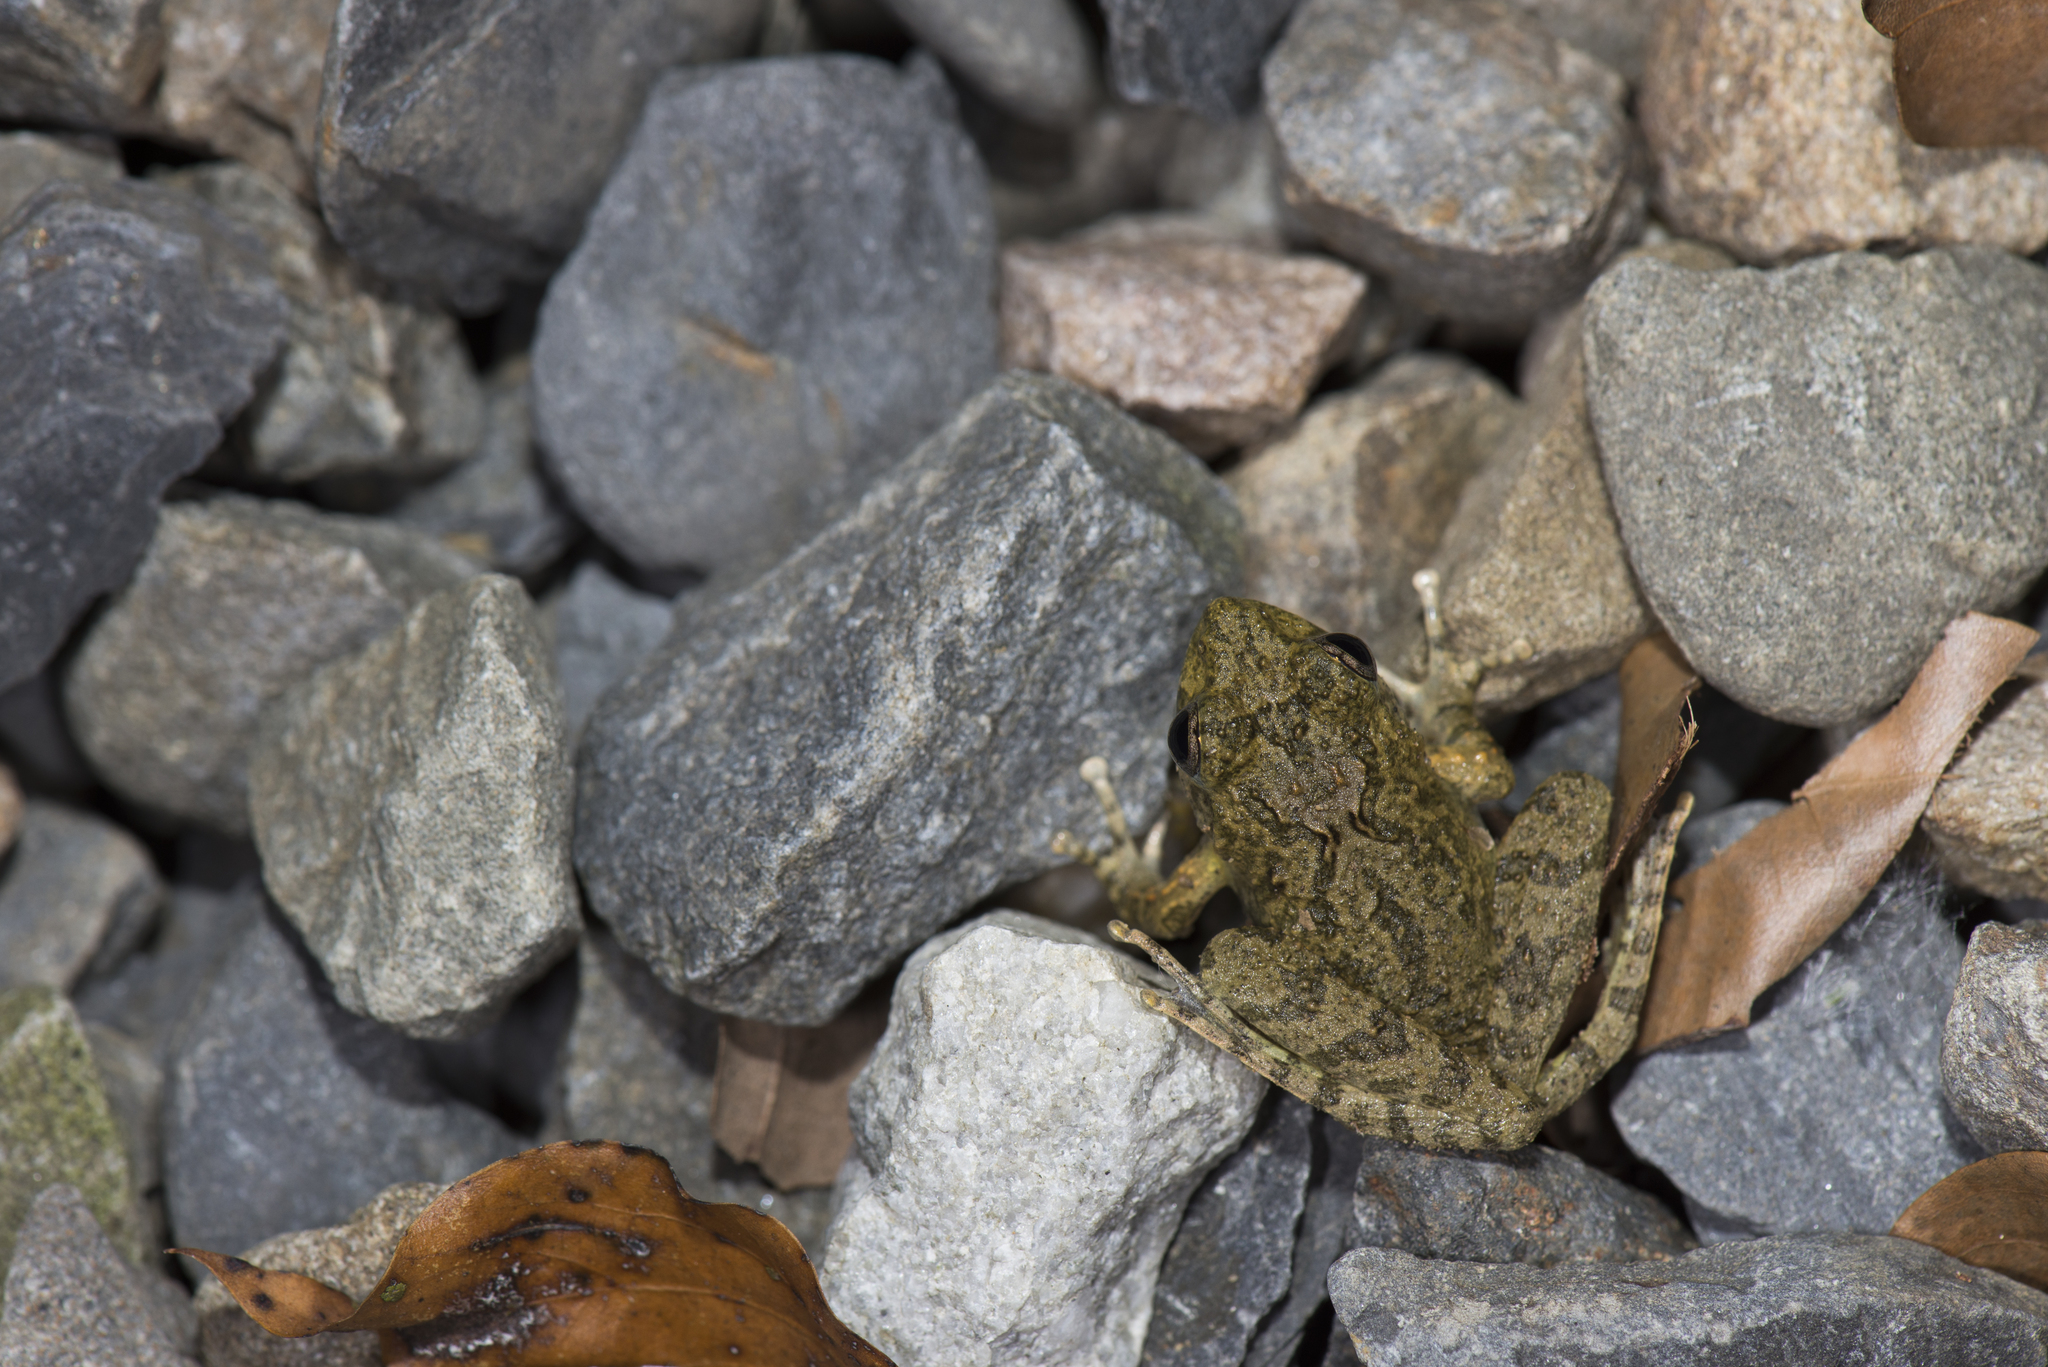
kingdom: Animalia
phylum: Chordata
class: Amphibia
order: Anura
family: Rhacophoridae
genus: Buergeria
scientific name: Buergeria choui
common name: Yaeyama kajika frog
